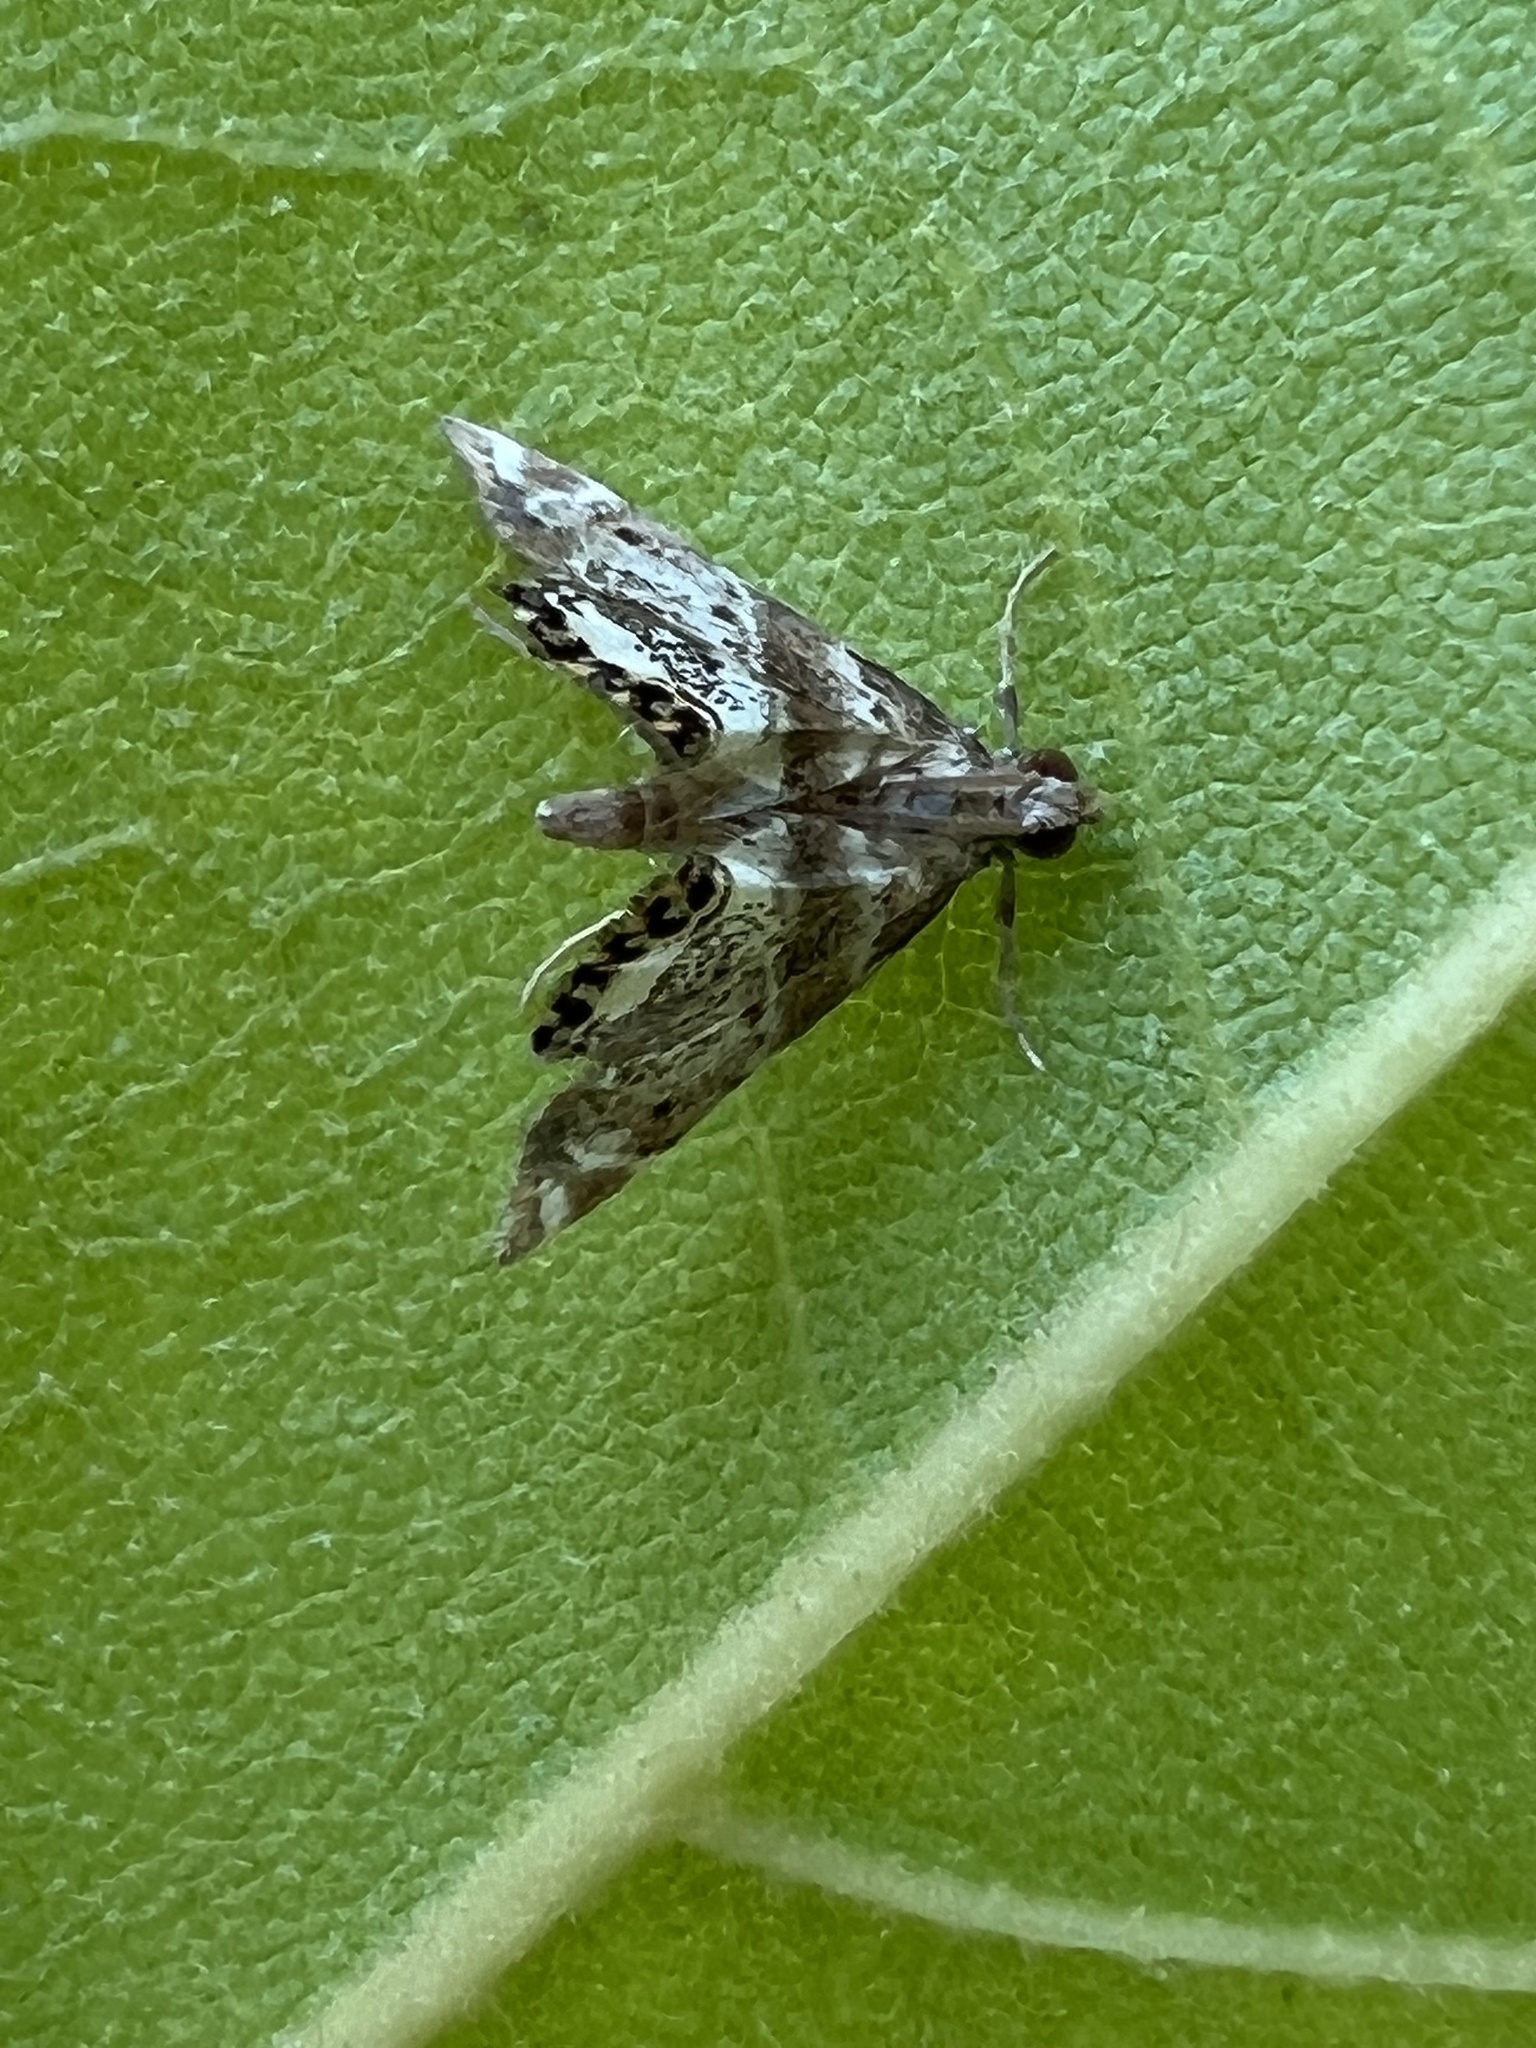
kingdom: Animalia
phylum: Arthropoda
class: Insecta
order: Lepidoptera
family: Crambidae
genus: Petrophila
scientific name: Petrophila fulicalis
